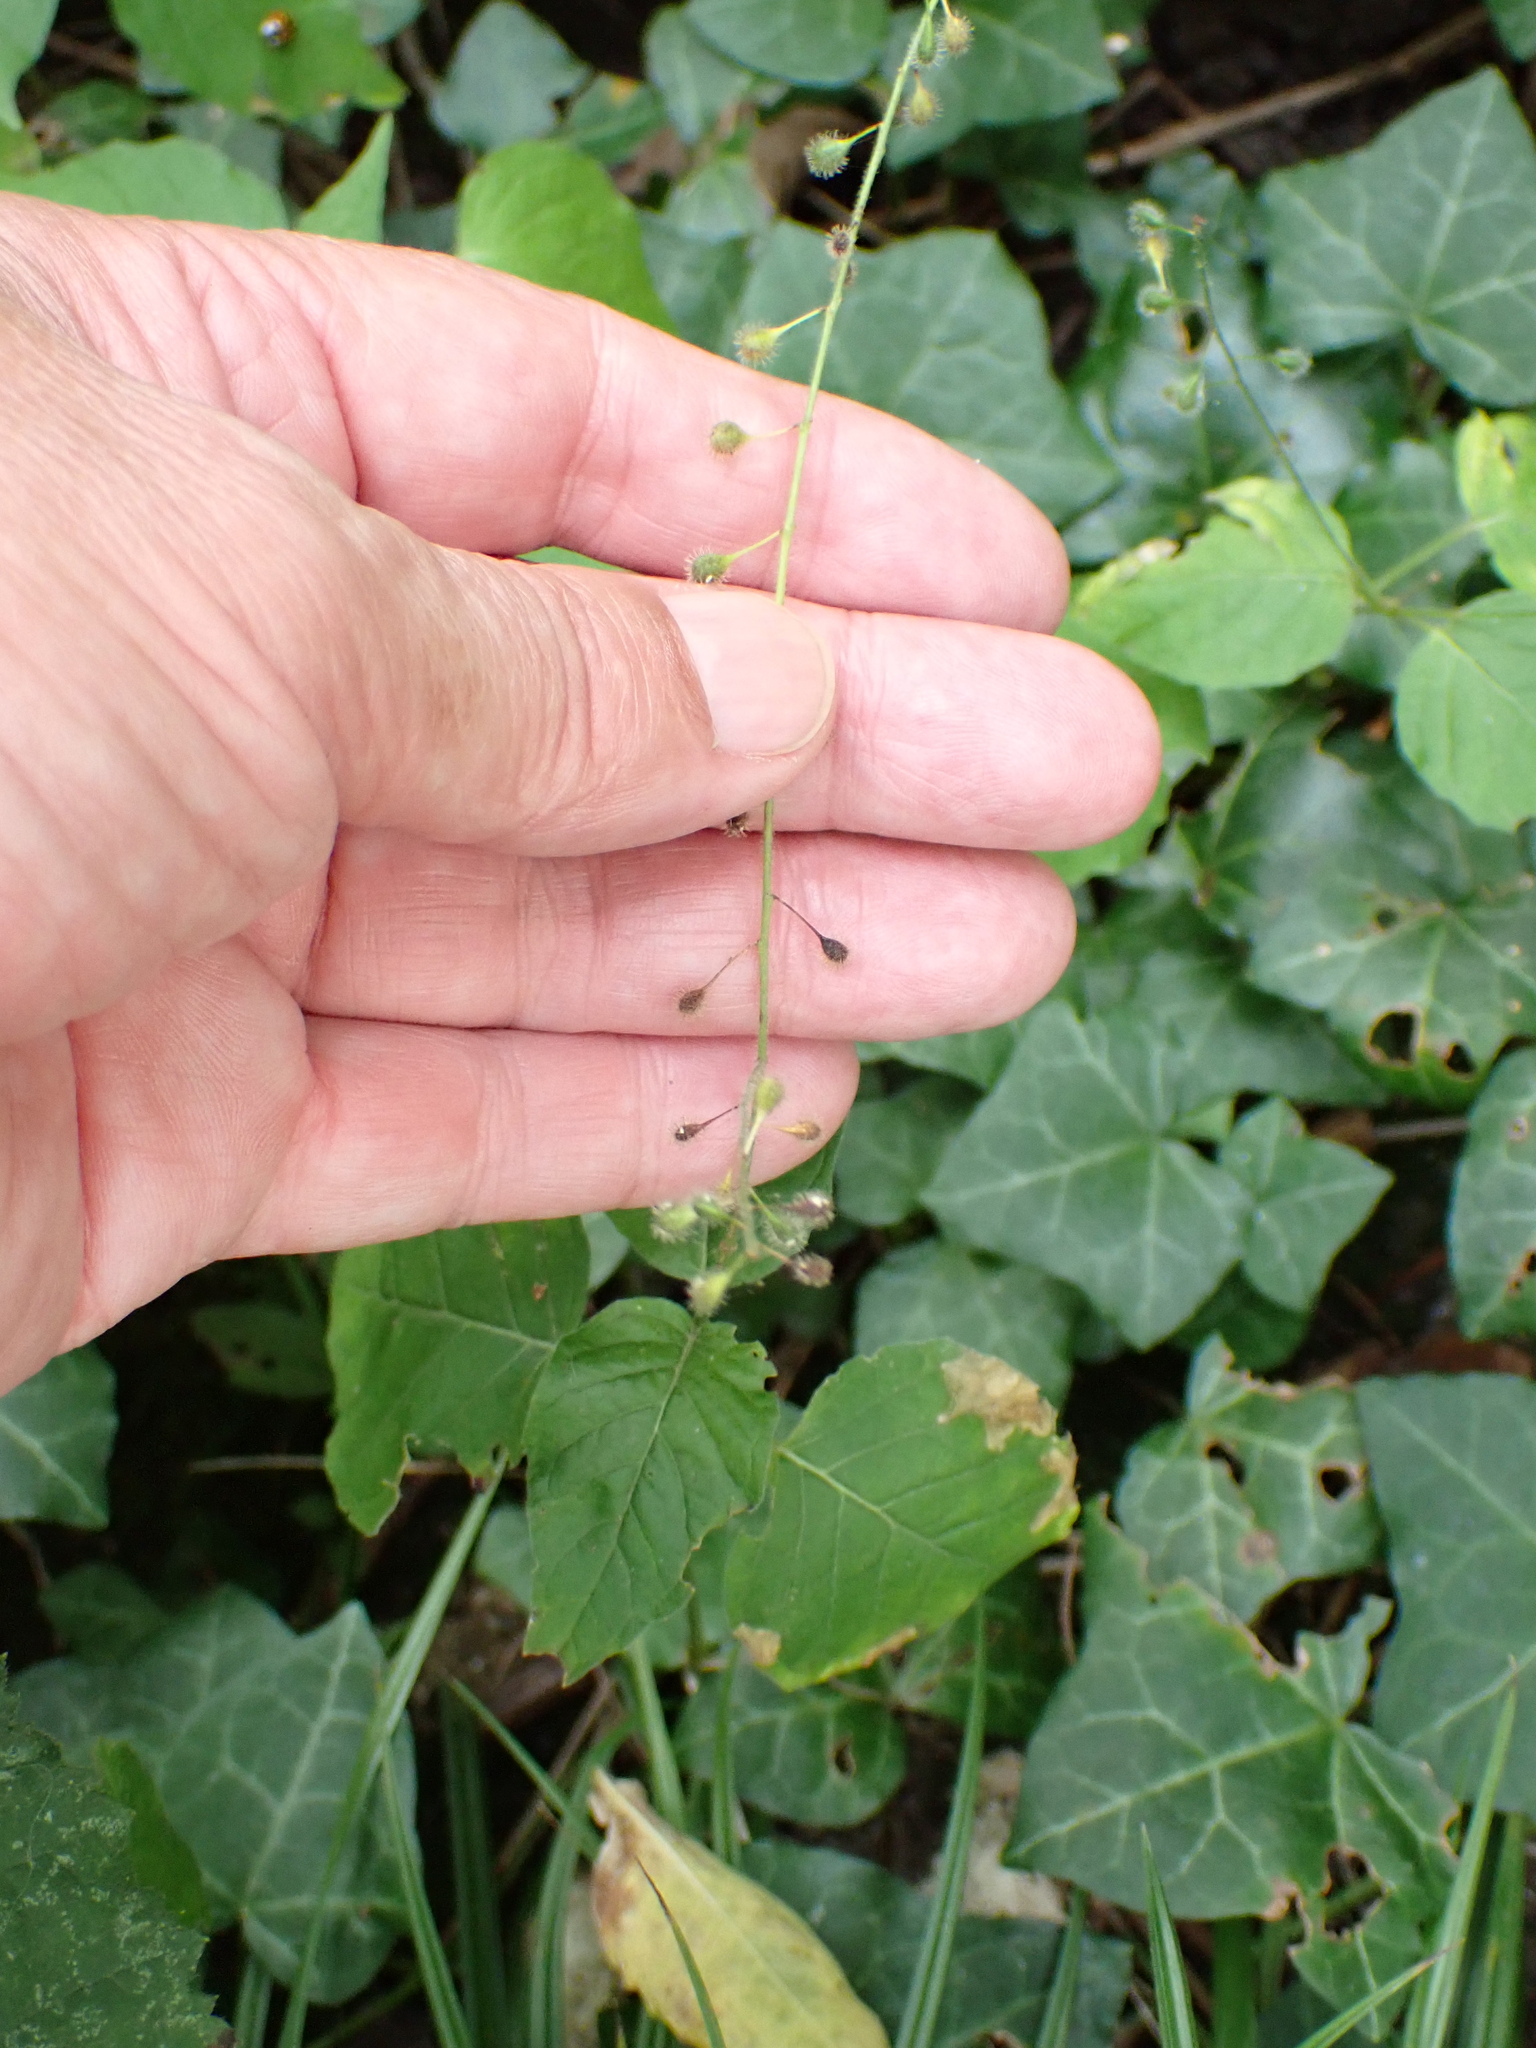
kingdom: Plantae
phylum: Tracheophyta
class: Magnoliopsida
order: Myrtales
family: Onagraceae
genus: Circaea
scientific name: Circaea lutetiana
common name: Enchanter's-nightshade
